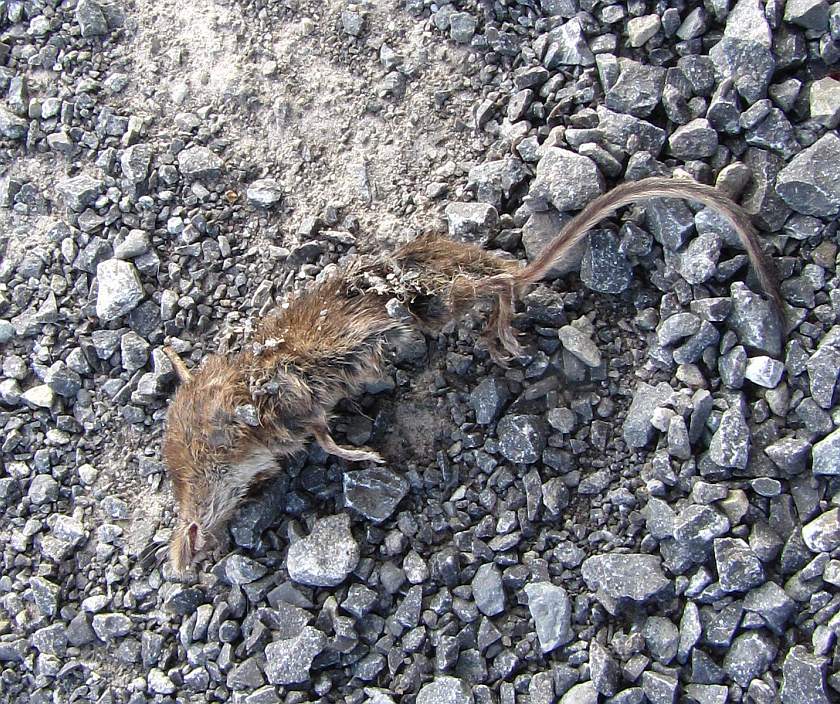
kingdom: Animalia
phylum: Chordata
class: Mammalia
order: Soricomorpha
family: Soricidae
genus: Sorex
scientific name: Sorex cinereus
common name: Cinereus shrew
